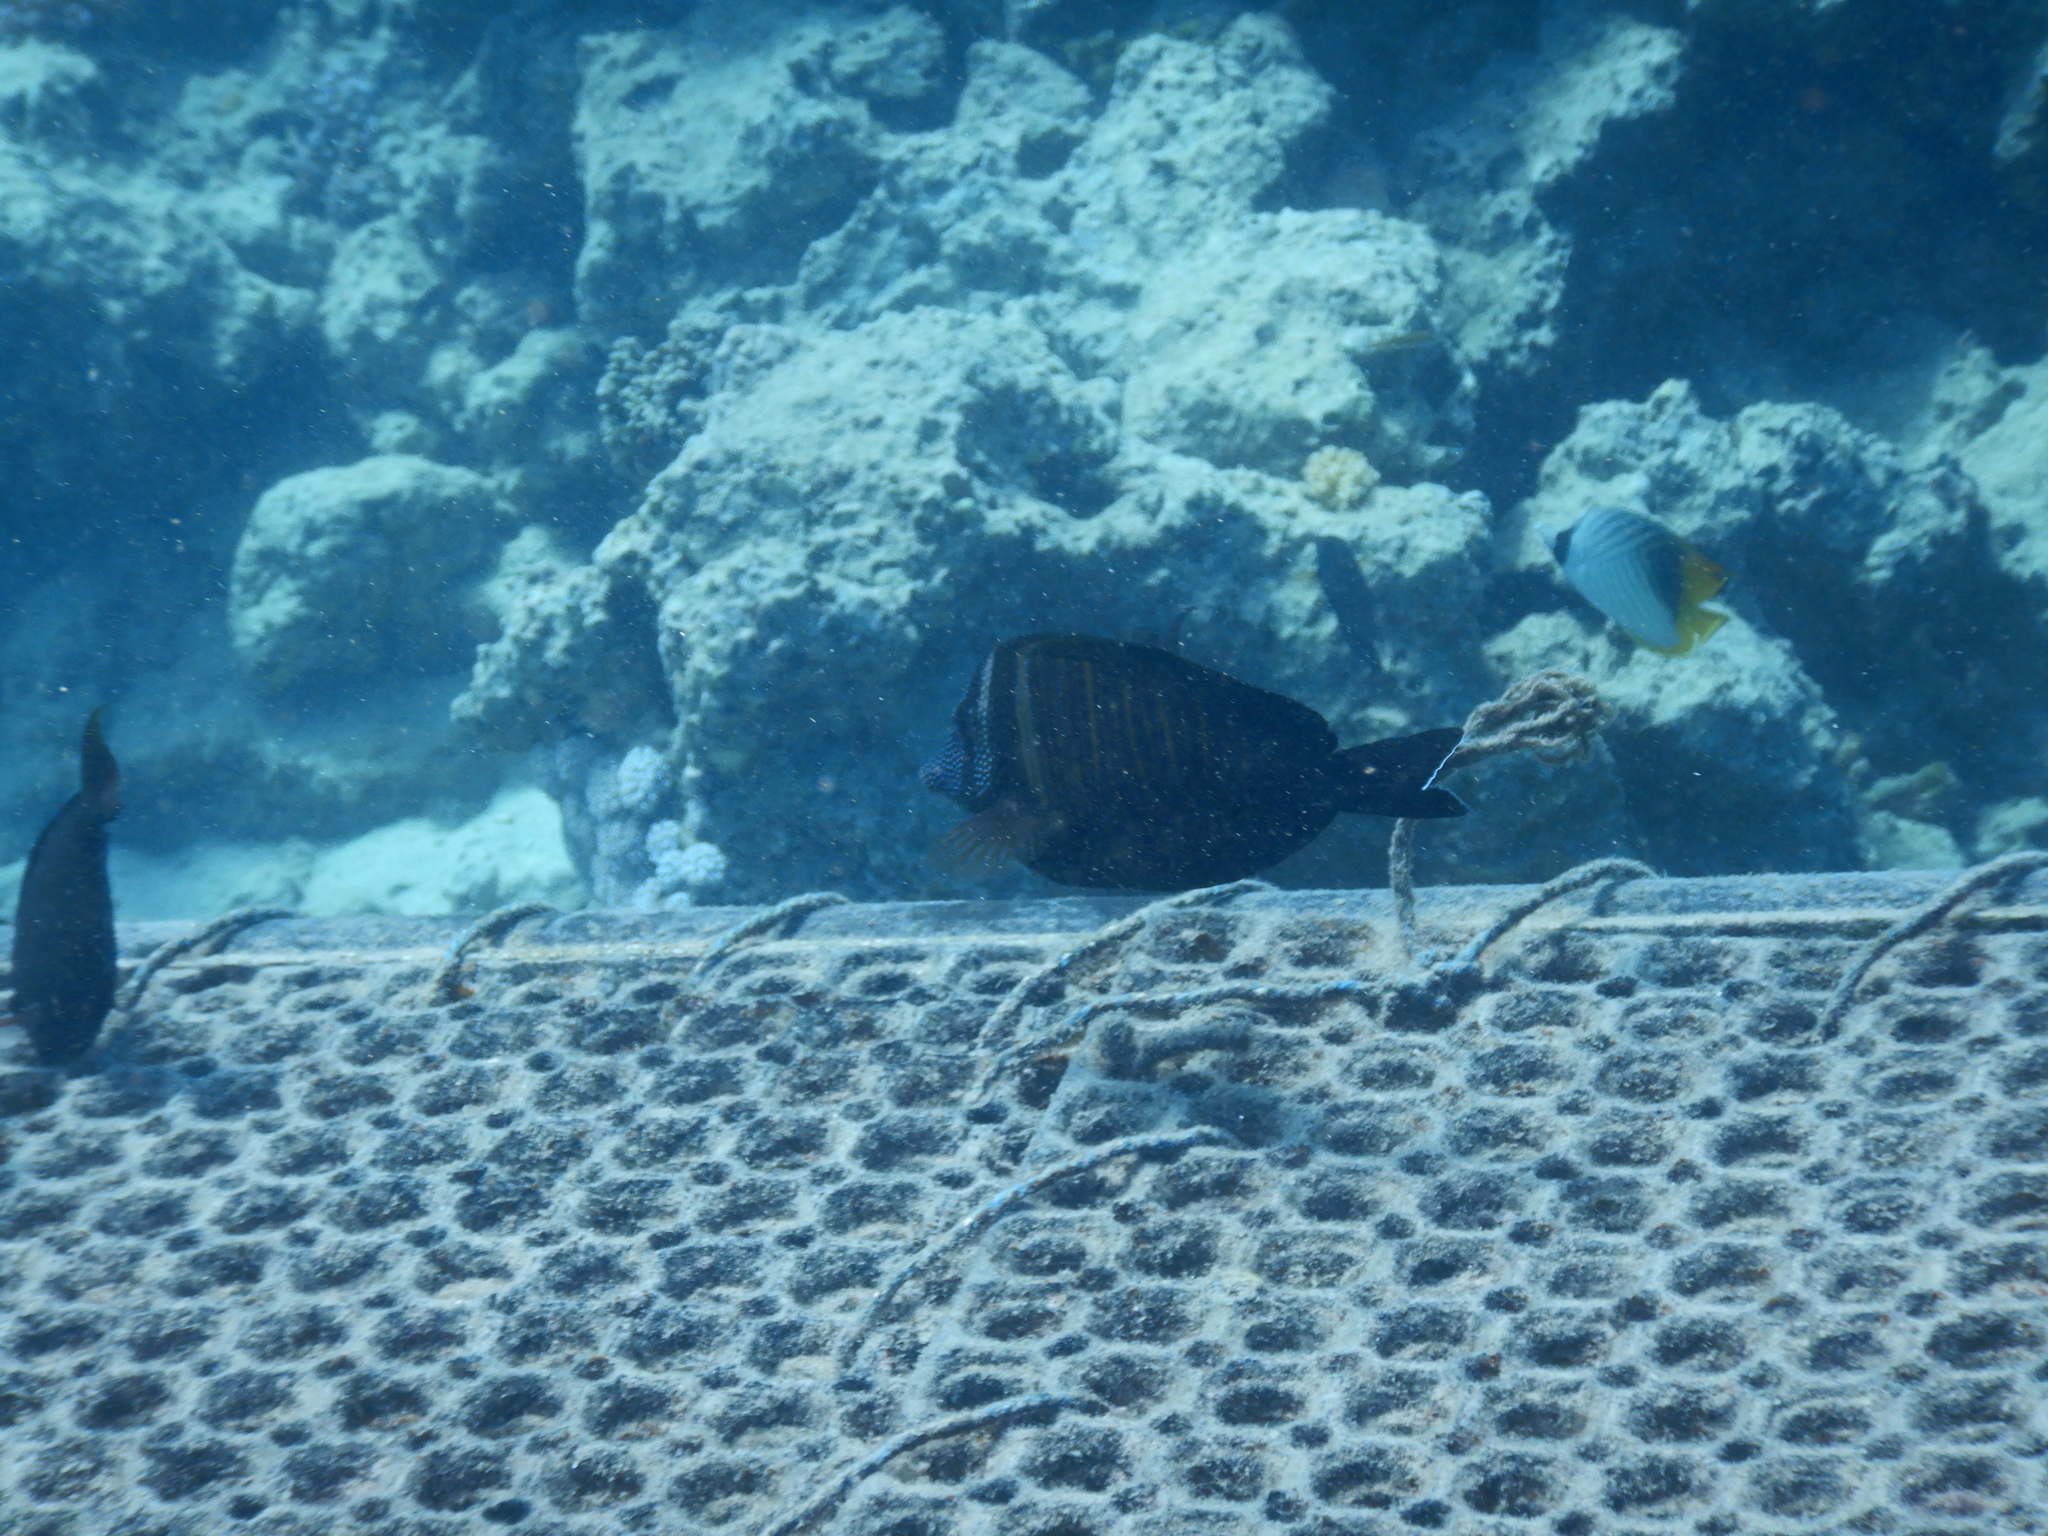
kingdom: Animalia
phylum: Chordata
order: Perciformes
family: Acanthuridae
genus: Zebrasoma
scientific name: Zebrasoma desjardinii
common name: Desjardin's sailfin tang
